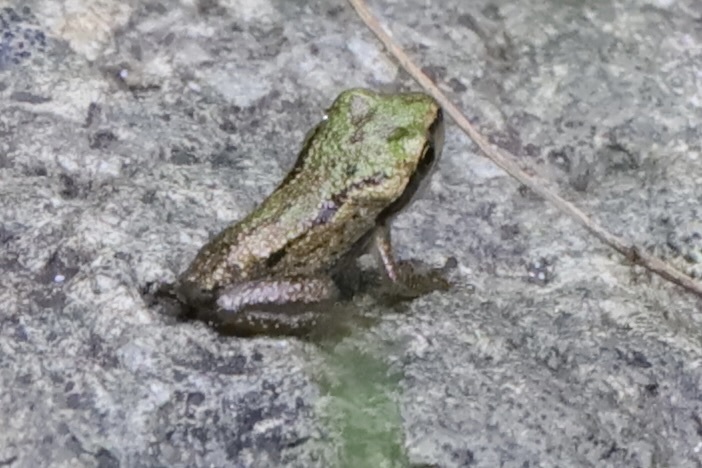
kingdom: Animalia
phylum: Chordata
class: Amphibia
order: Anura
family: Hylidae
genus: Pseudacris
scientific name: Pseudacris regilla
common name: Pacific chorus frog
